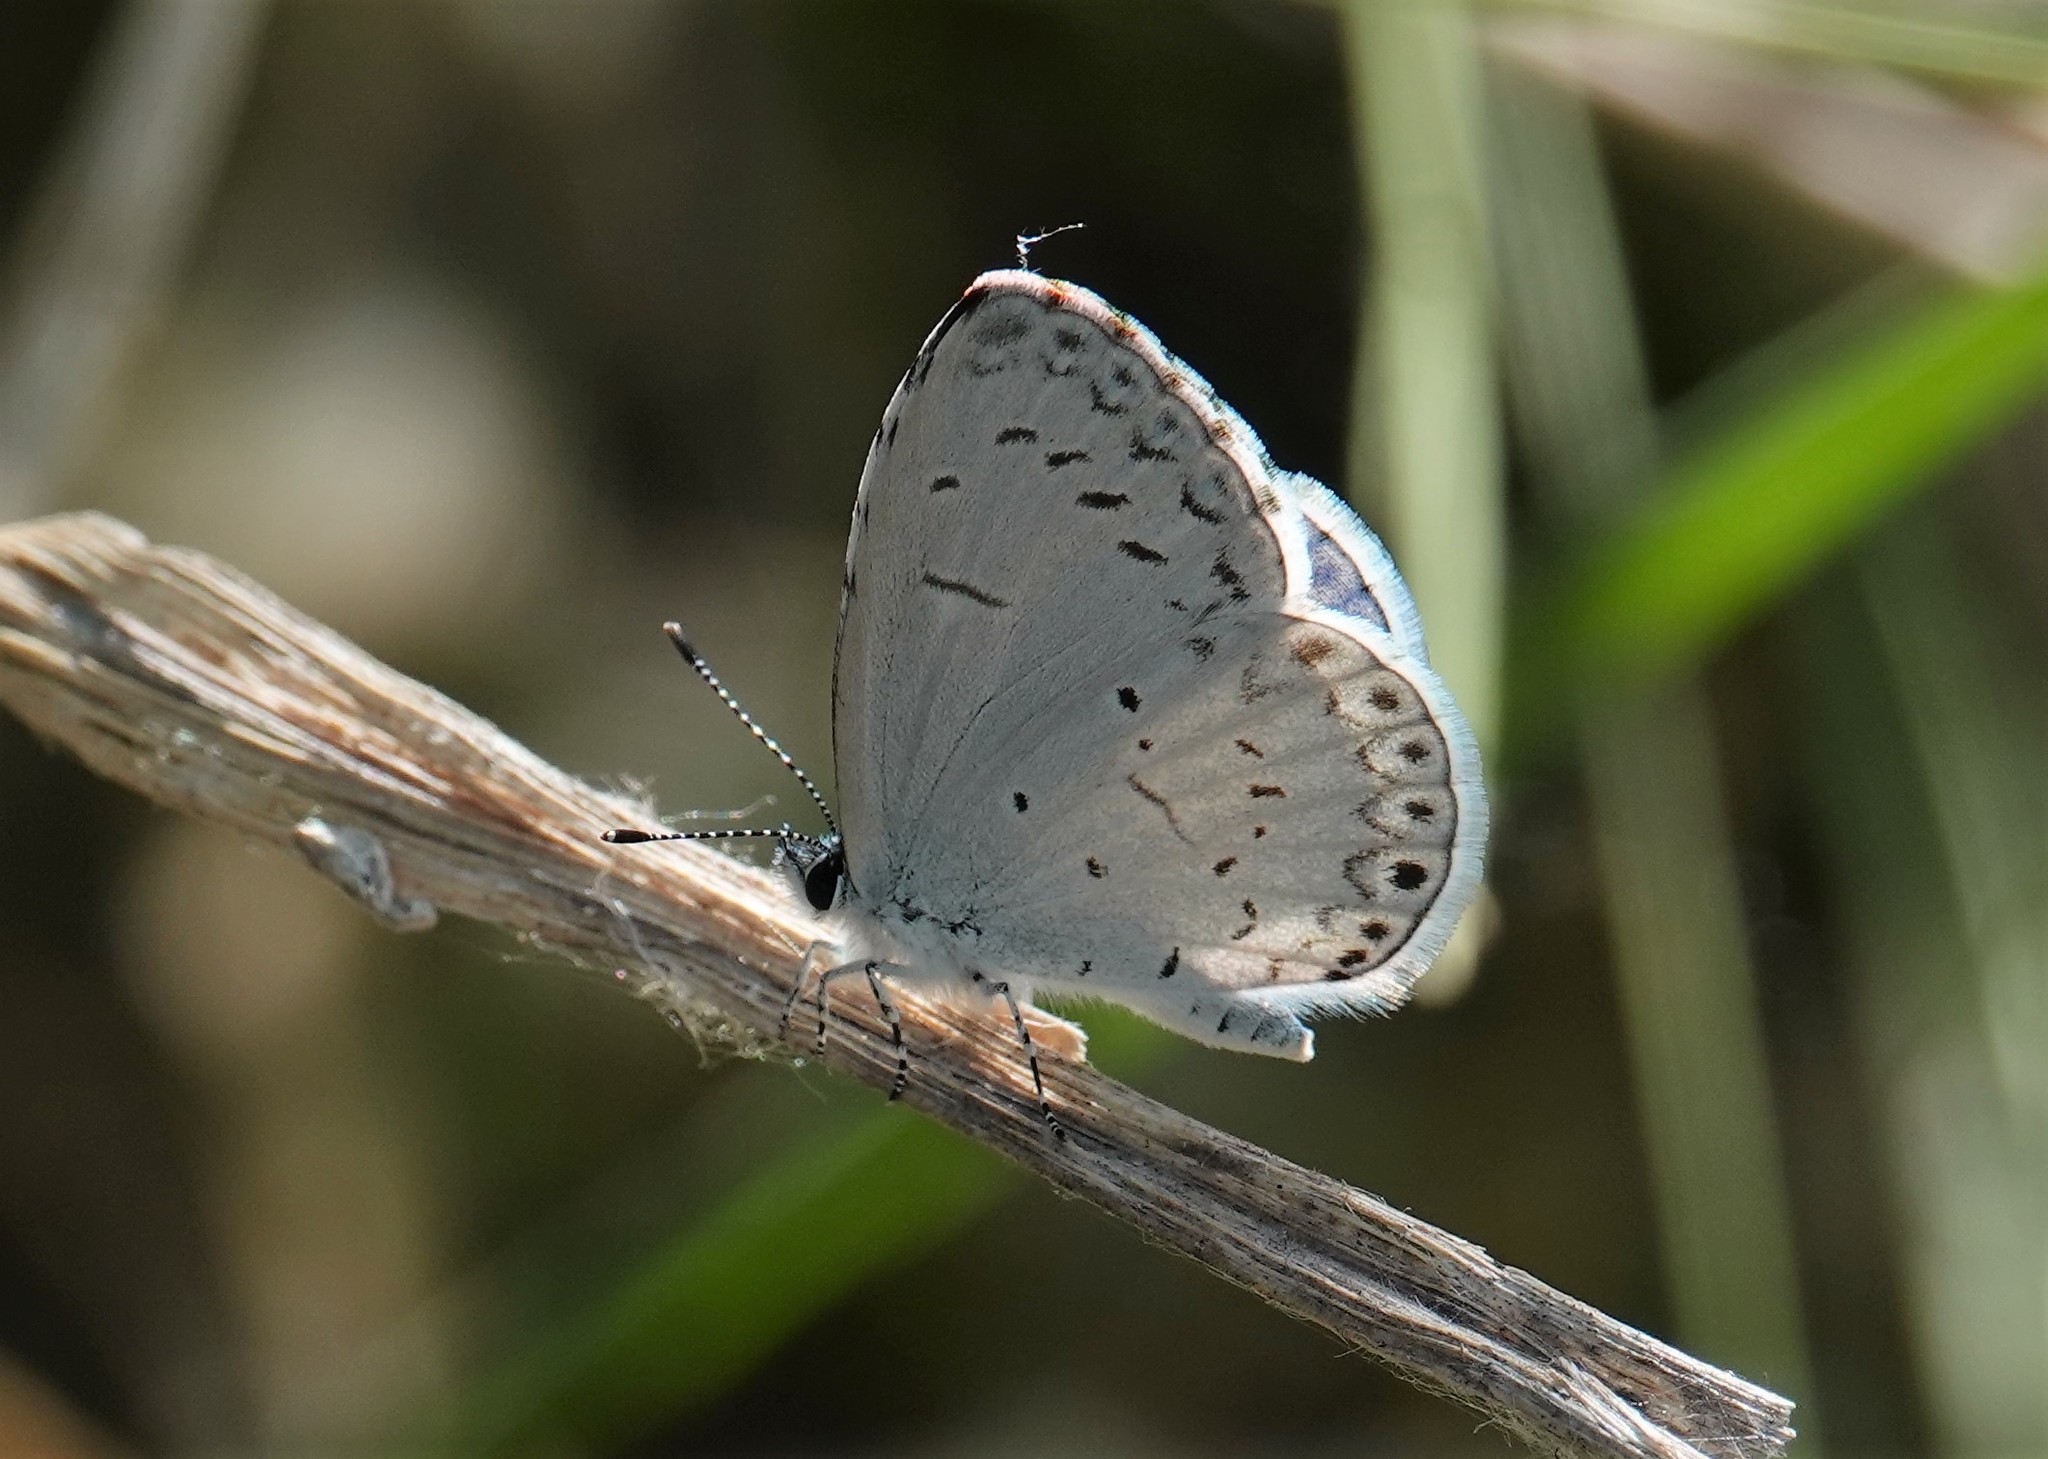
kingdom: Animalia
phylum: Arthropoda
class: Insecta
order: Lepidoptera
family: Lycaenidae
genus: Cyaniris
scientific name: Cyaniris neglecta
